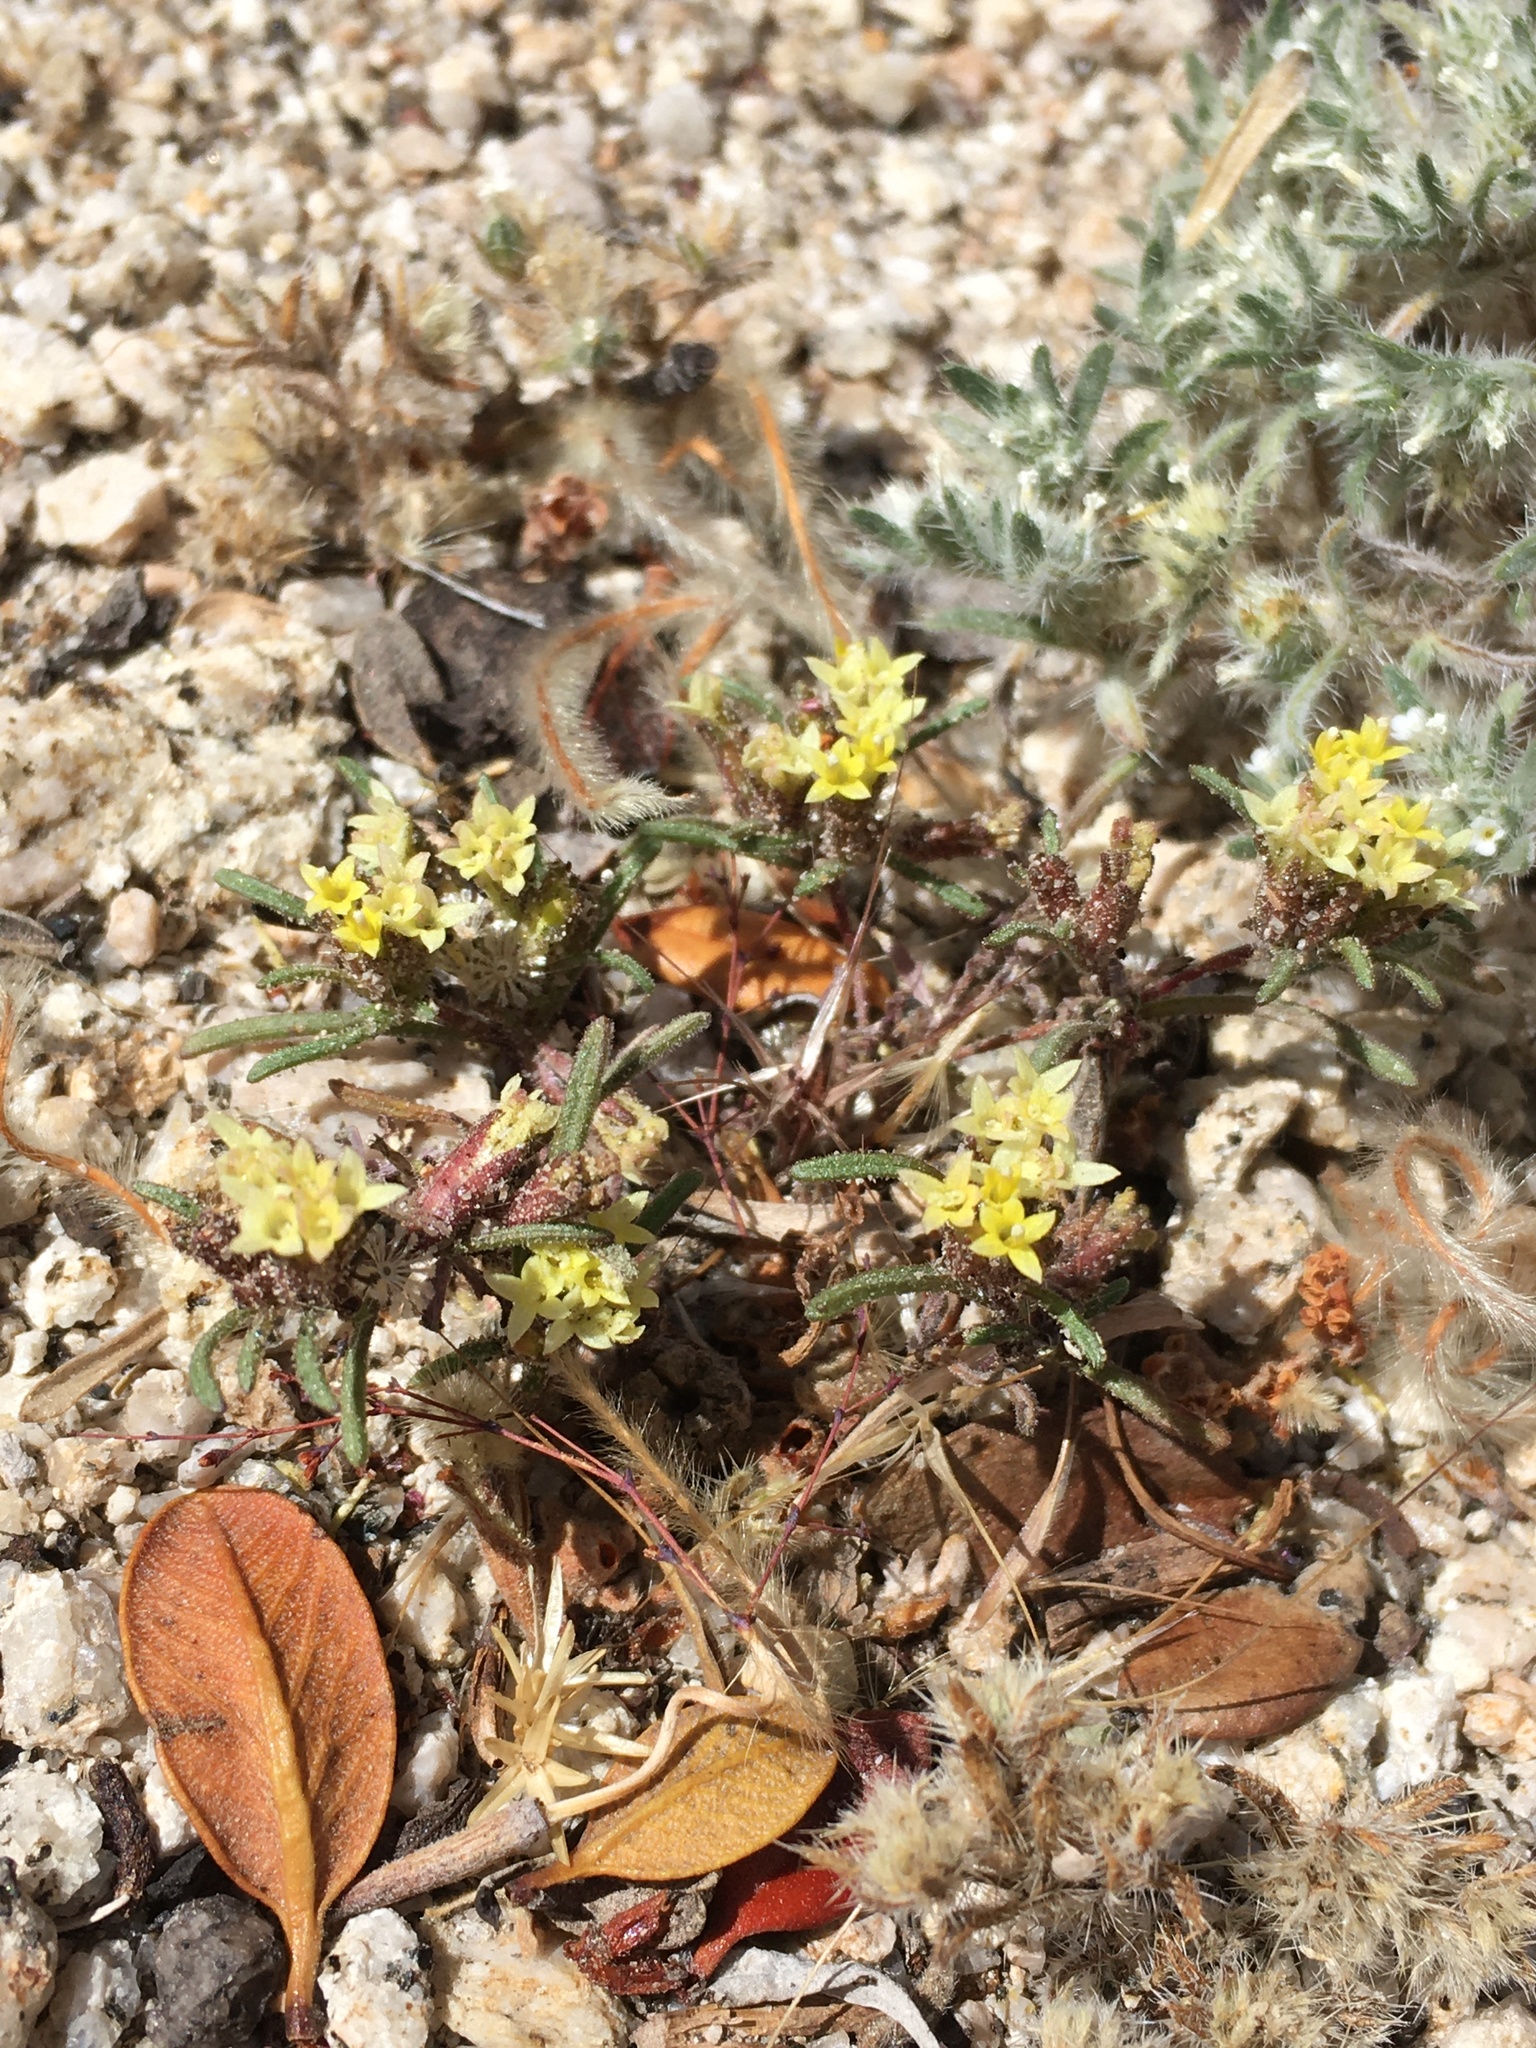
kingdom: Plantae
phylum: Tracheophyta
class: Magnoliopsida
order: Asterales
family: Asteraceae
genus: Orochaenactis
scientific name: Orochaenactis thysanocarpha
